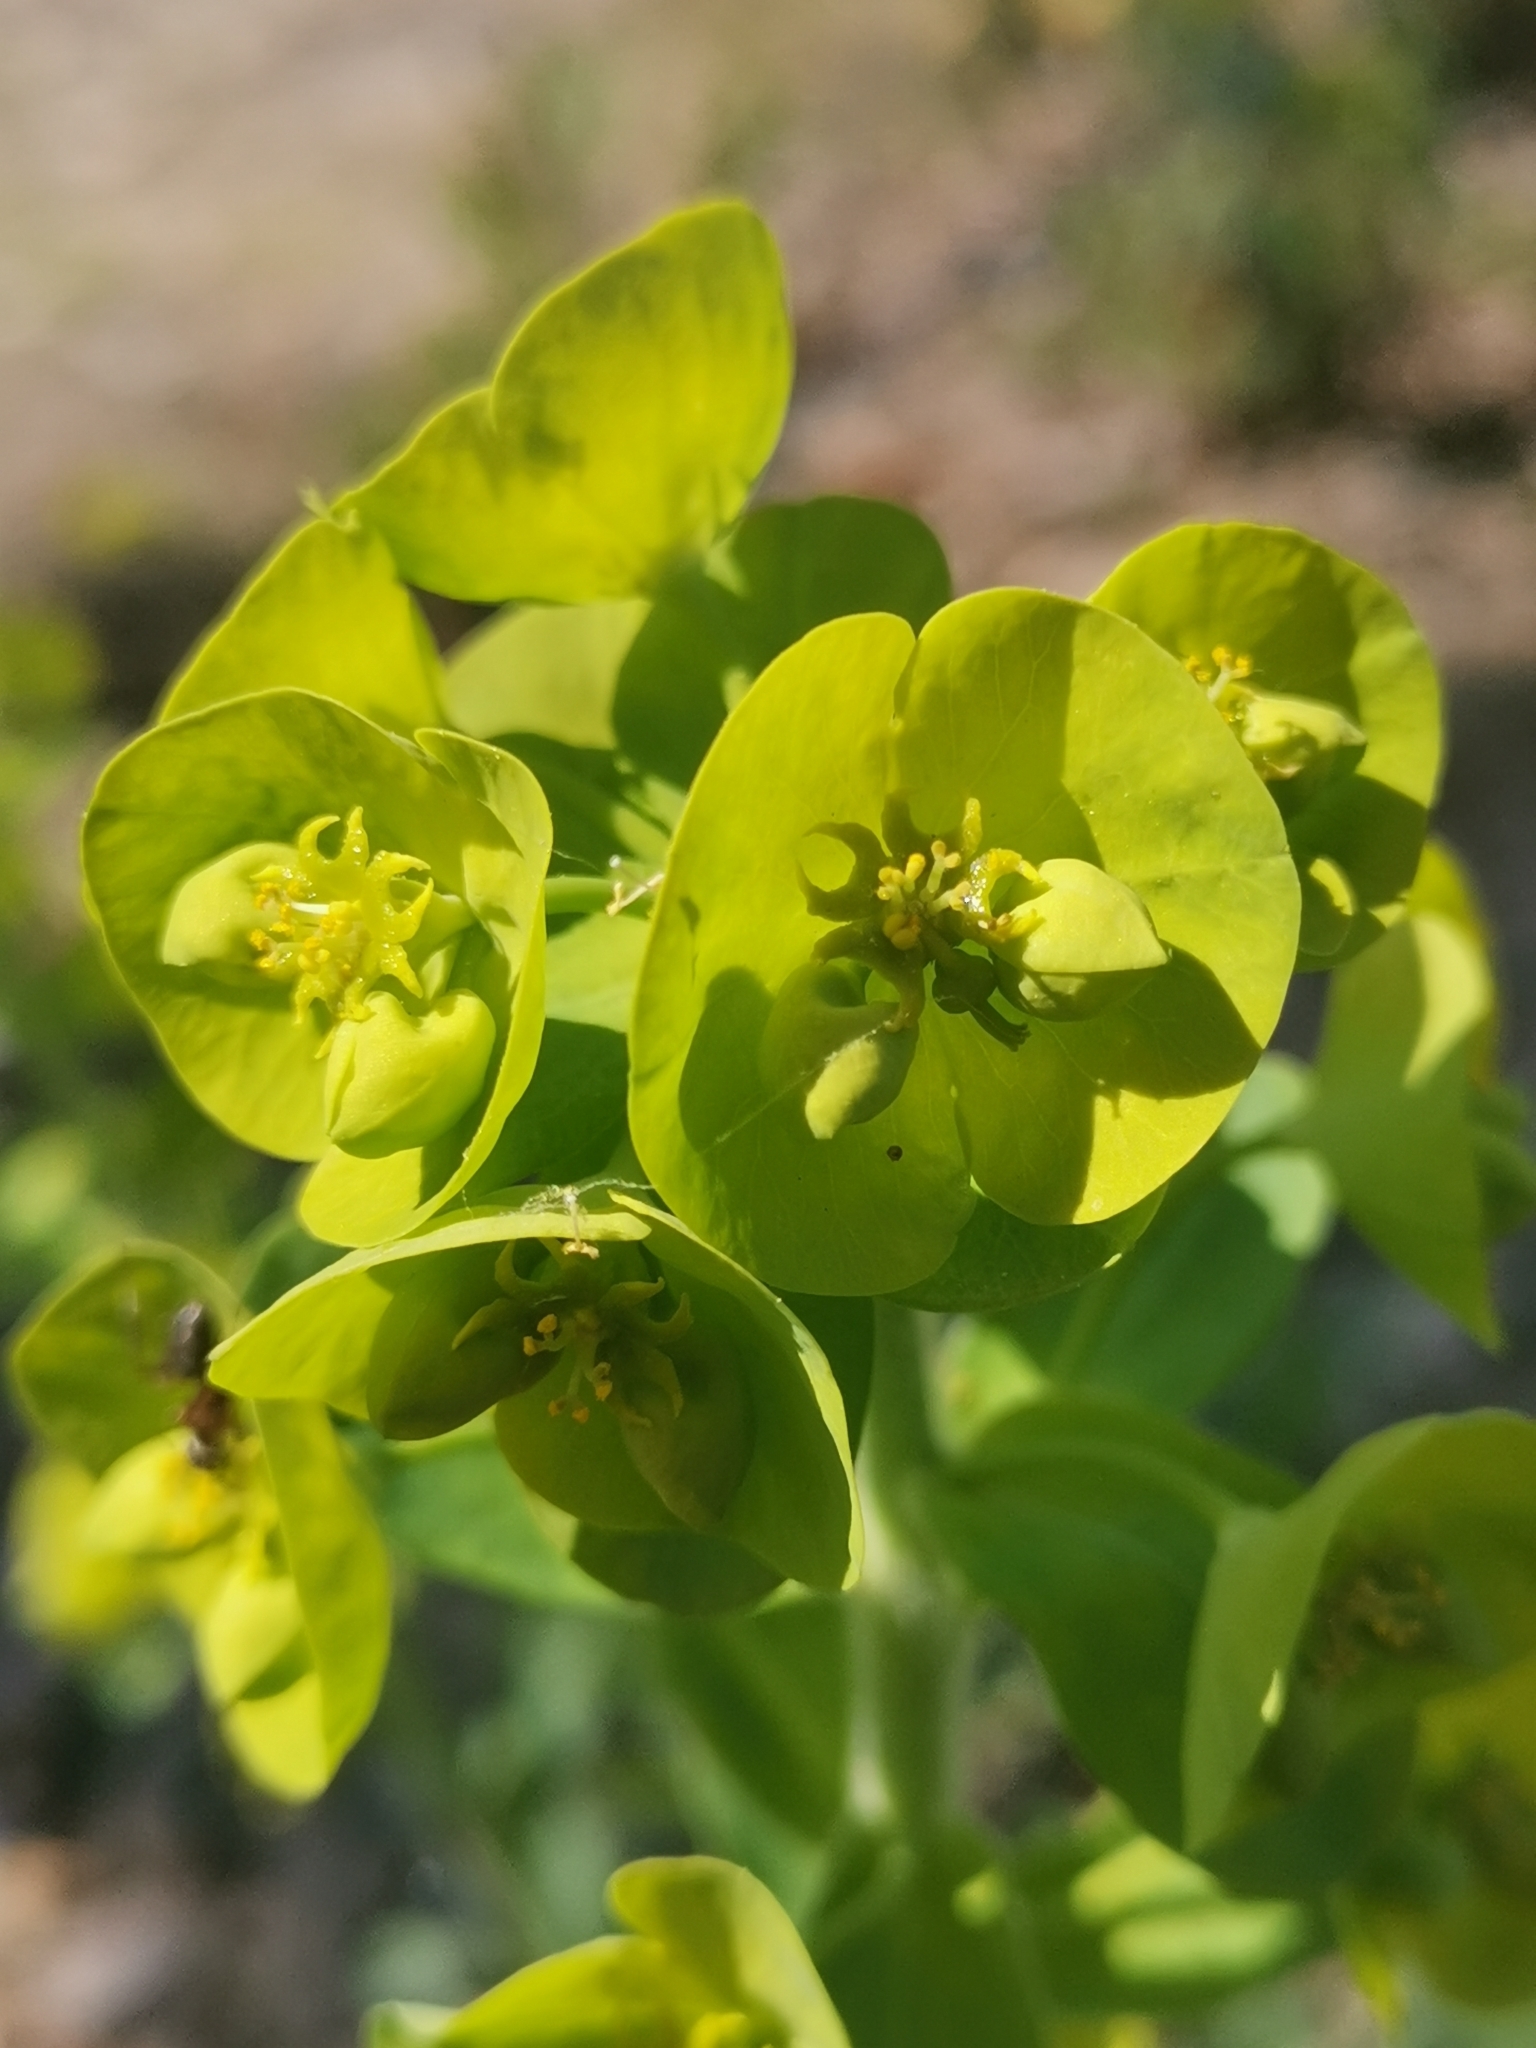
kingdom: Plantae
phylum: Tracheophyta
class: Magnoliopsida
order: Malpighiales
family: Euphorbiaceae
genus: Euphorbia
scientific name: Euphorbia amygdaloides
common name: Wood spurge
